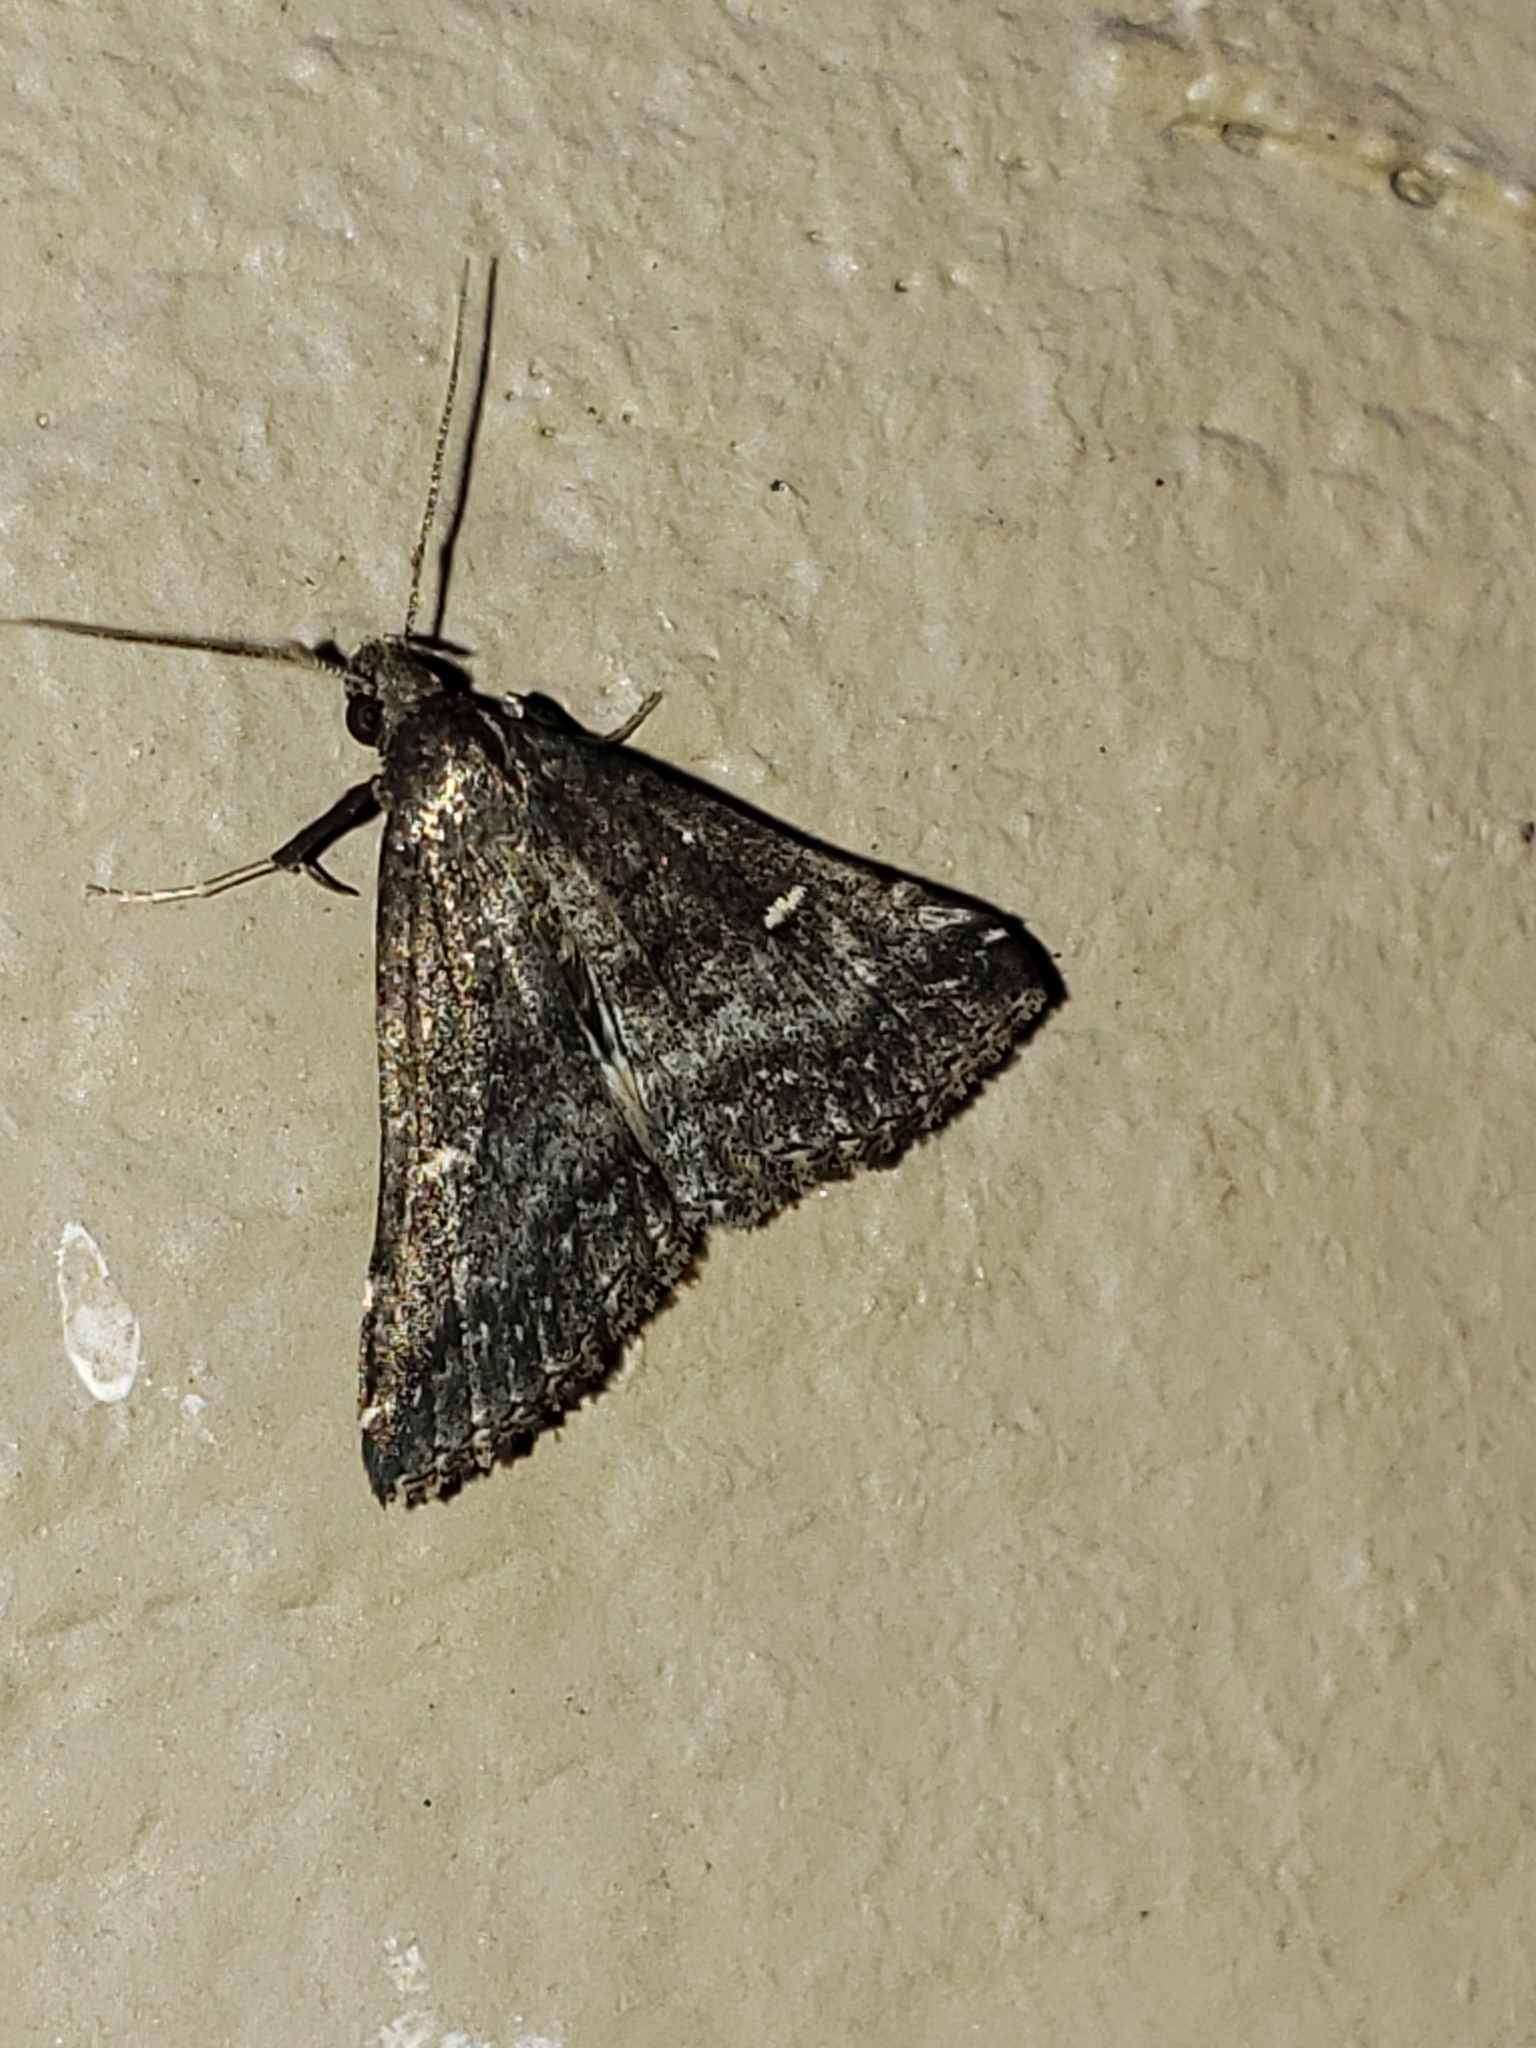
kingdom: Animalia
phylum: Arthropoda
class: Insecta
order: Lepidoptera
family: Erebidae
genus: Tetanolita
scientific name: Tetanolita mynesalis
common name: Smoky tetanolita moth
